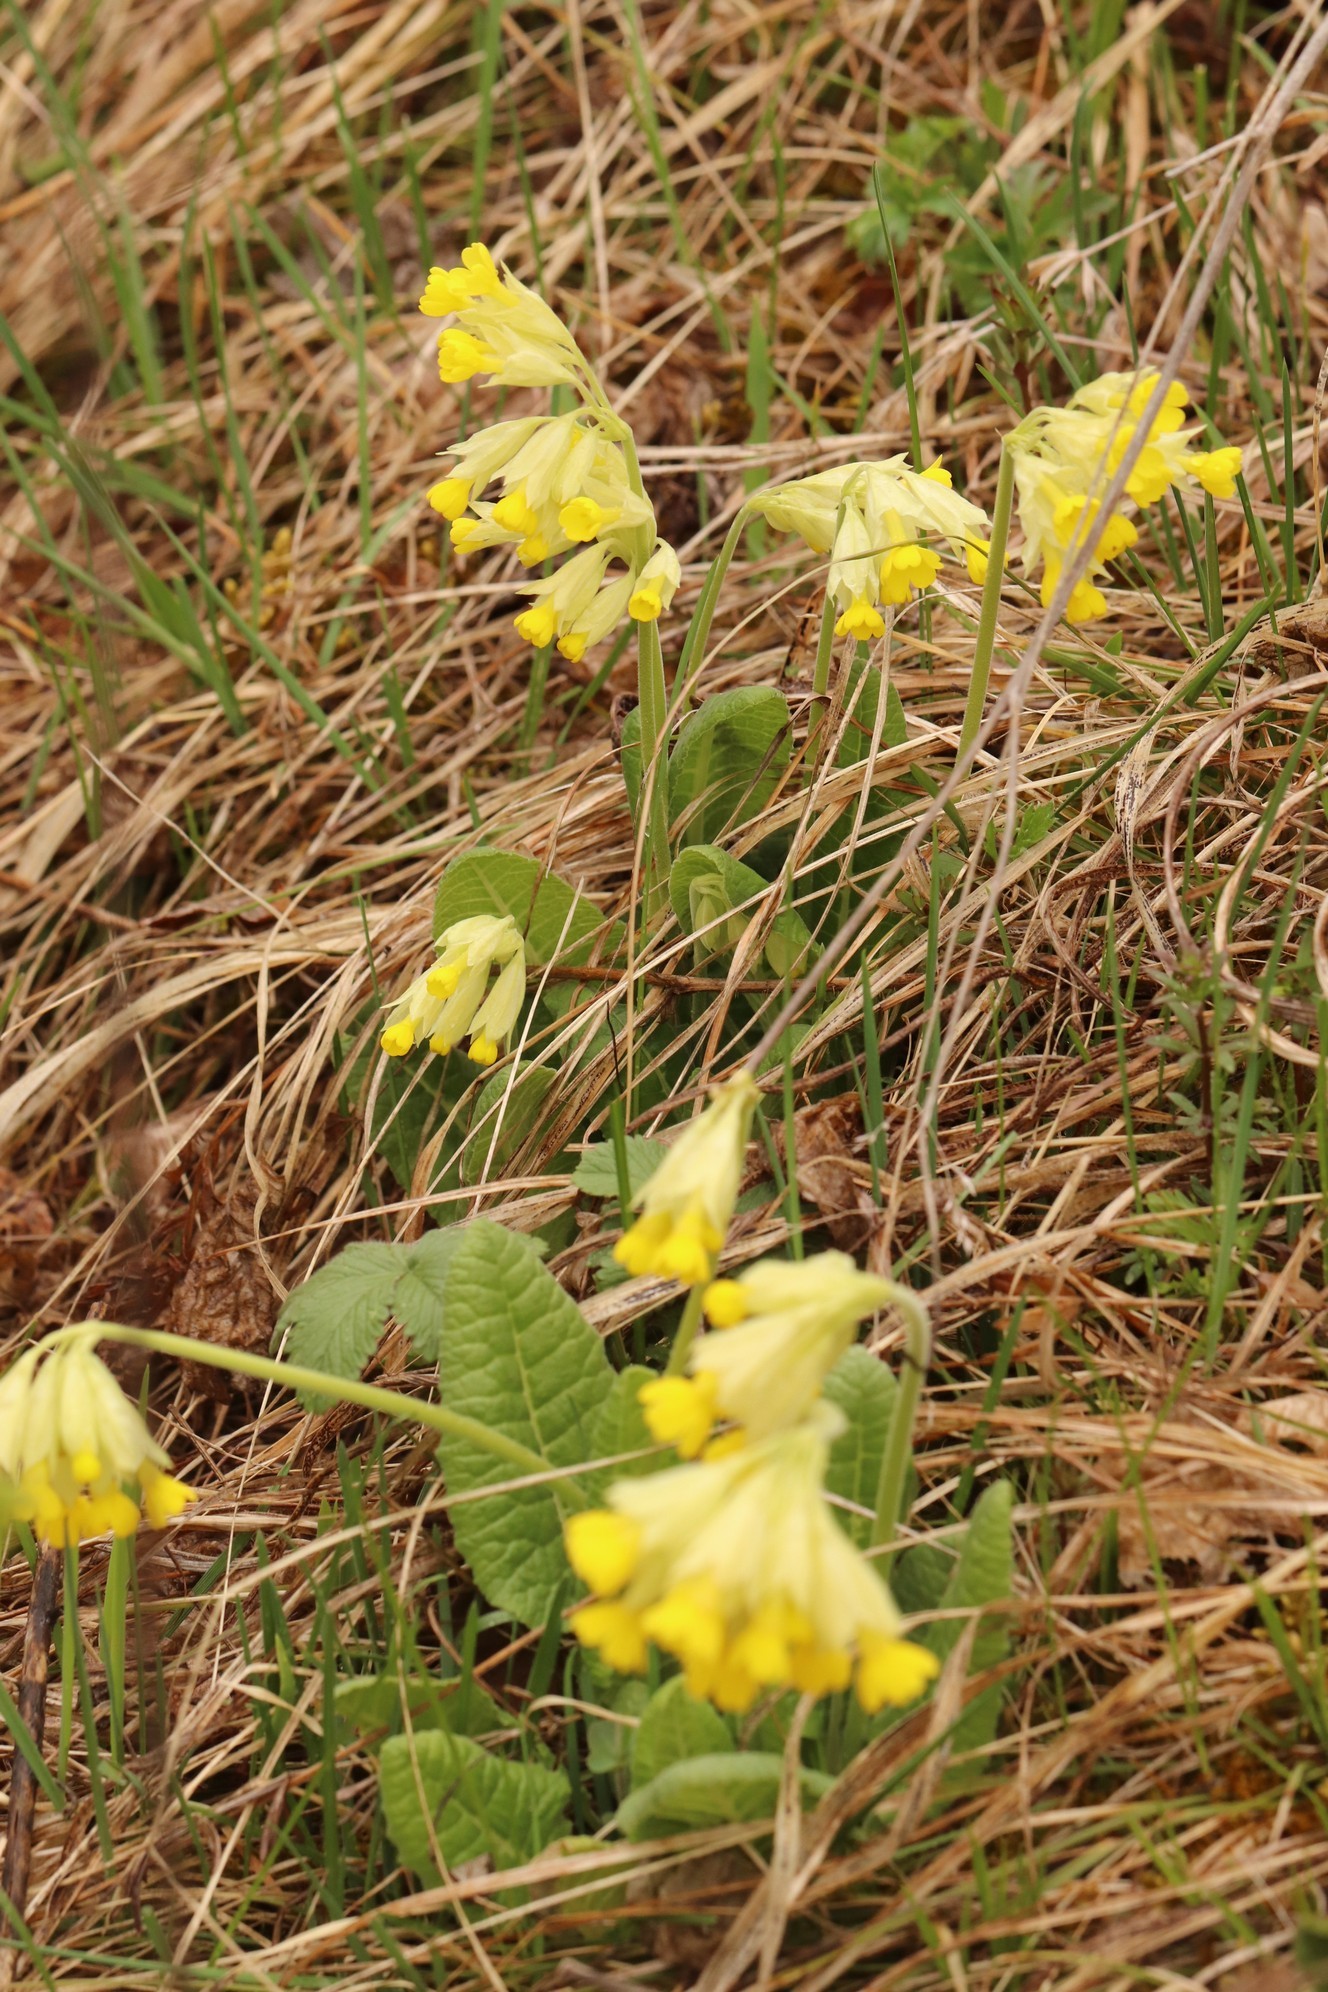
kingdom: Plantae
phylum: Tracheophyta
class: Magnoliopsida
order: Ericales
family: Primulaceae
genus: Primula
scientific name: Primula veris
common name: Cowslip
